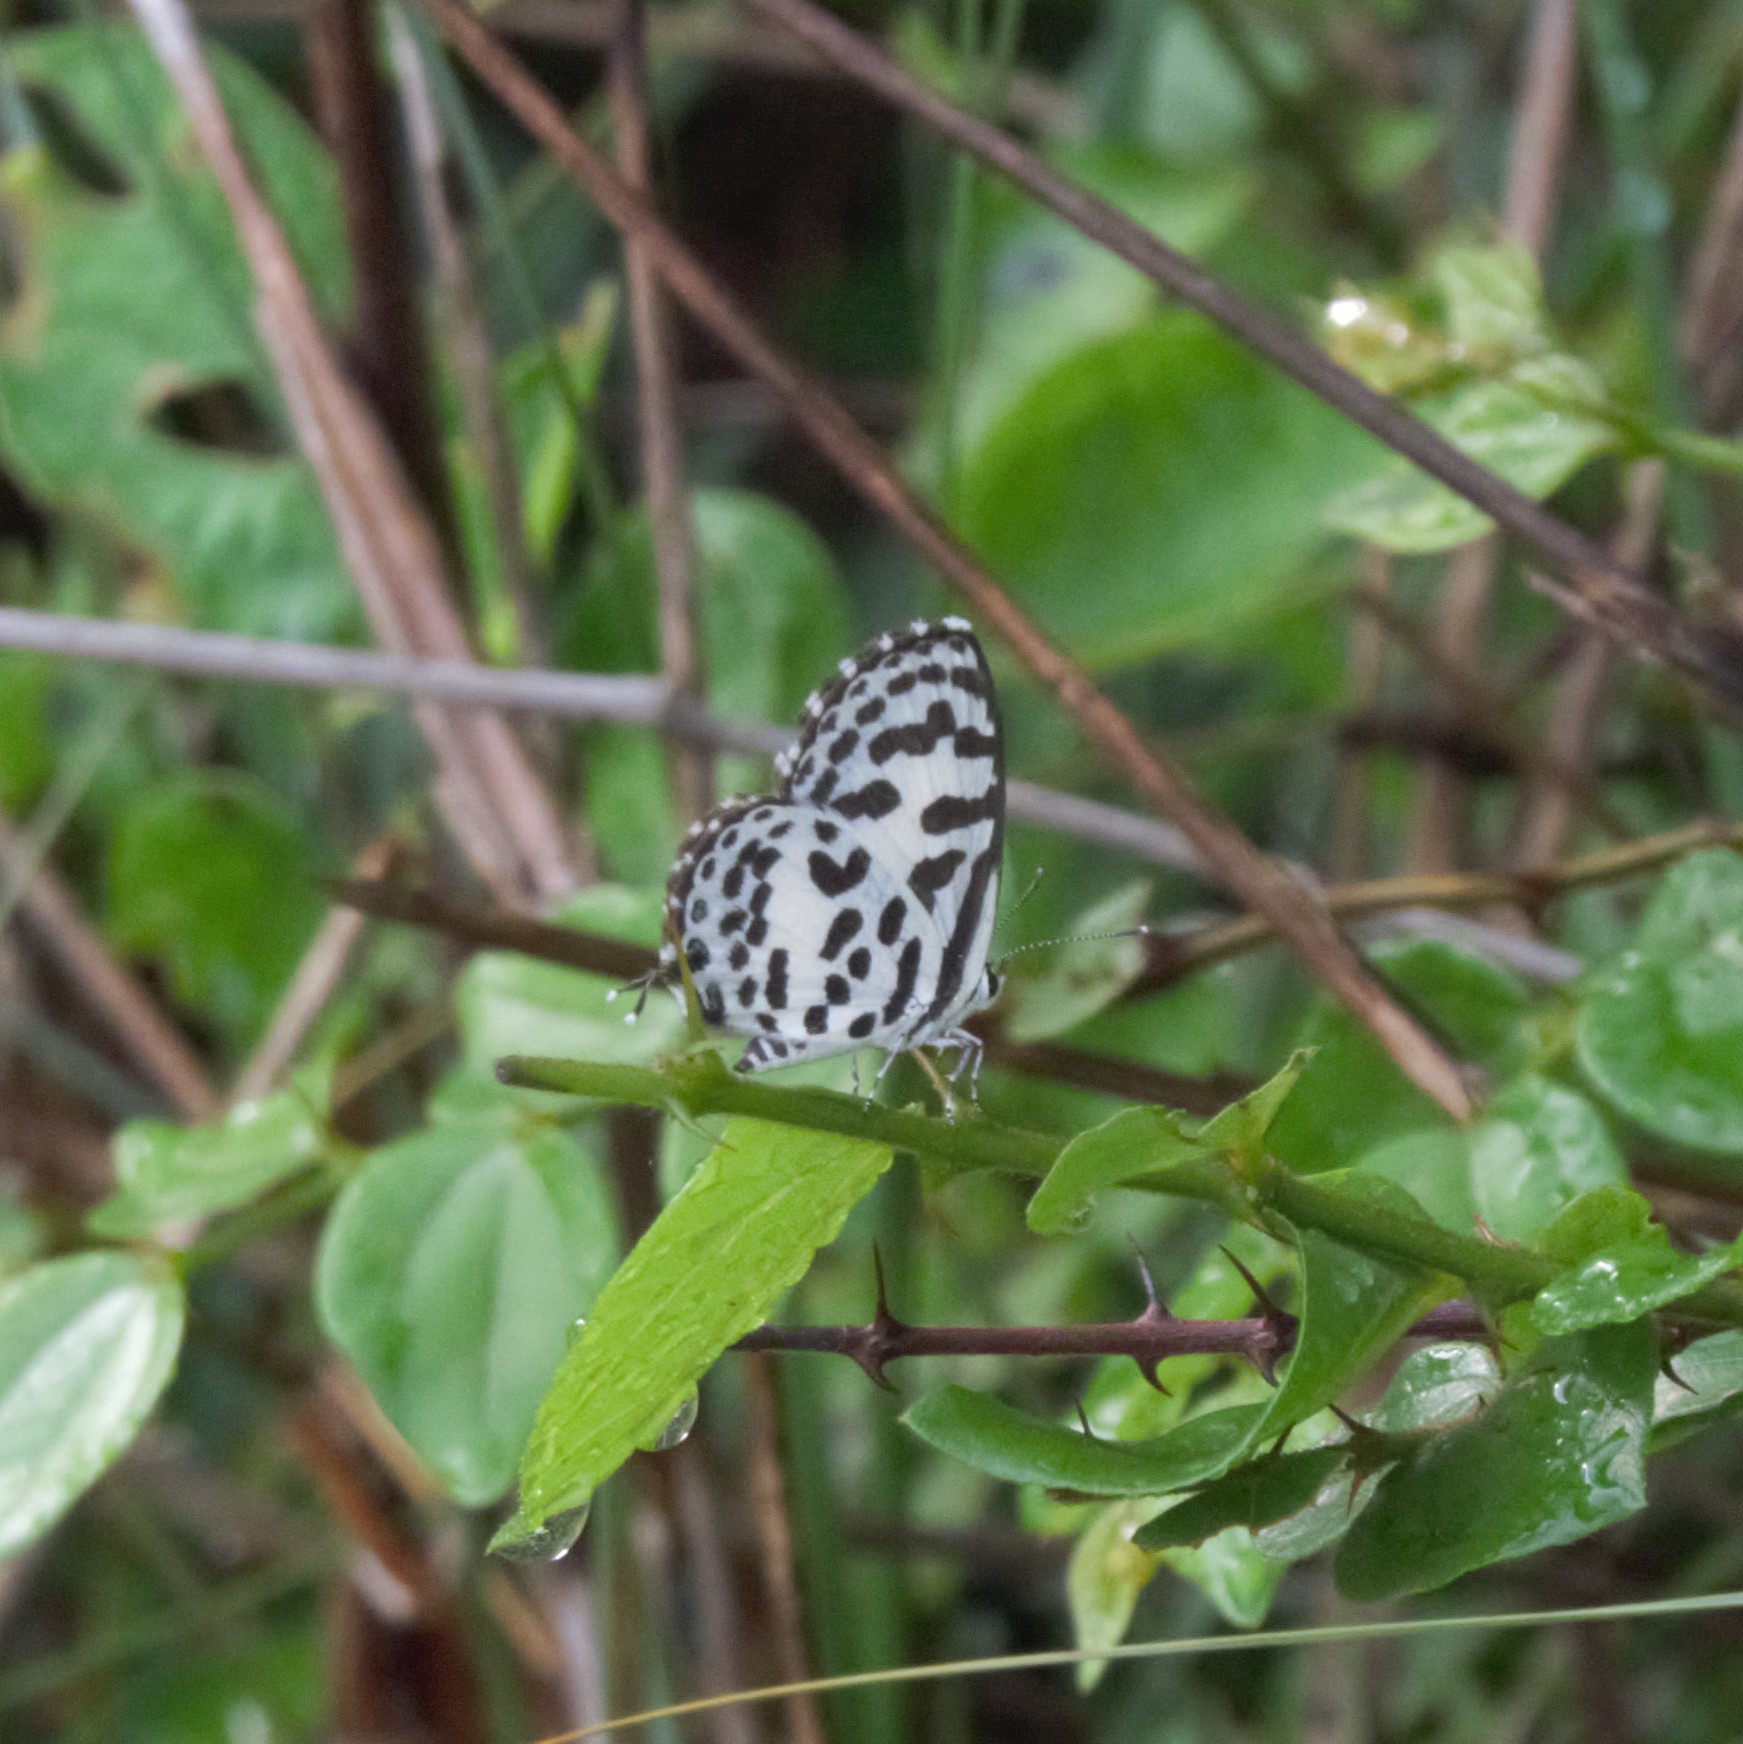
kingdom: Animalia
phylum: Arthropoda
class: Insecta
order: Lepidoptera
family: Lycaenidae
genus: Castalius
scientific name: Castalius rosimon
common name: Common pierrot
